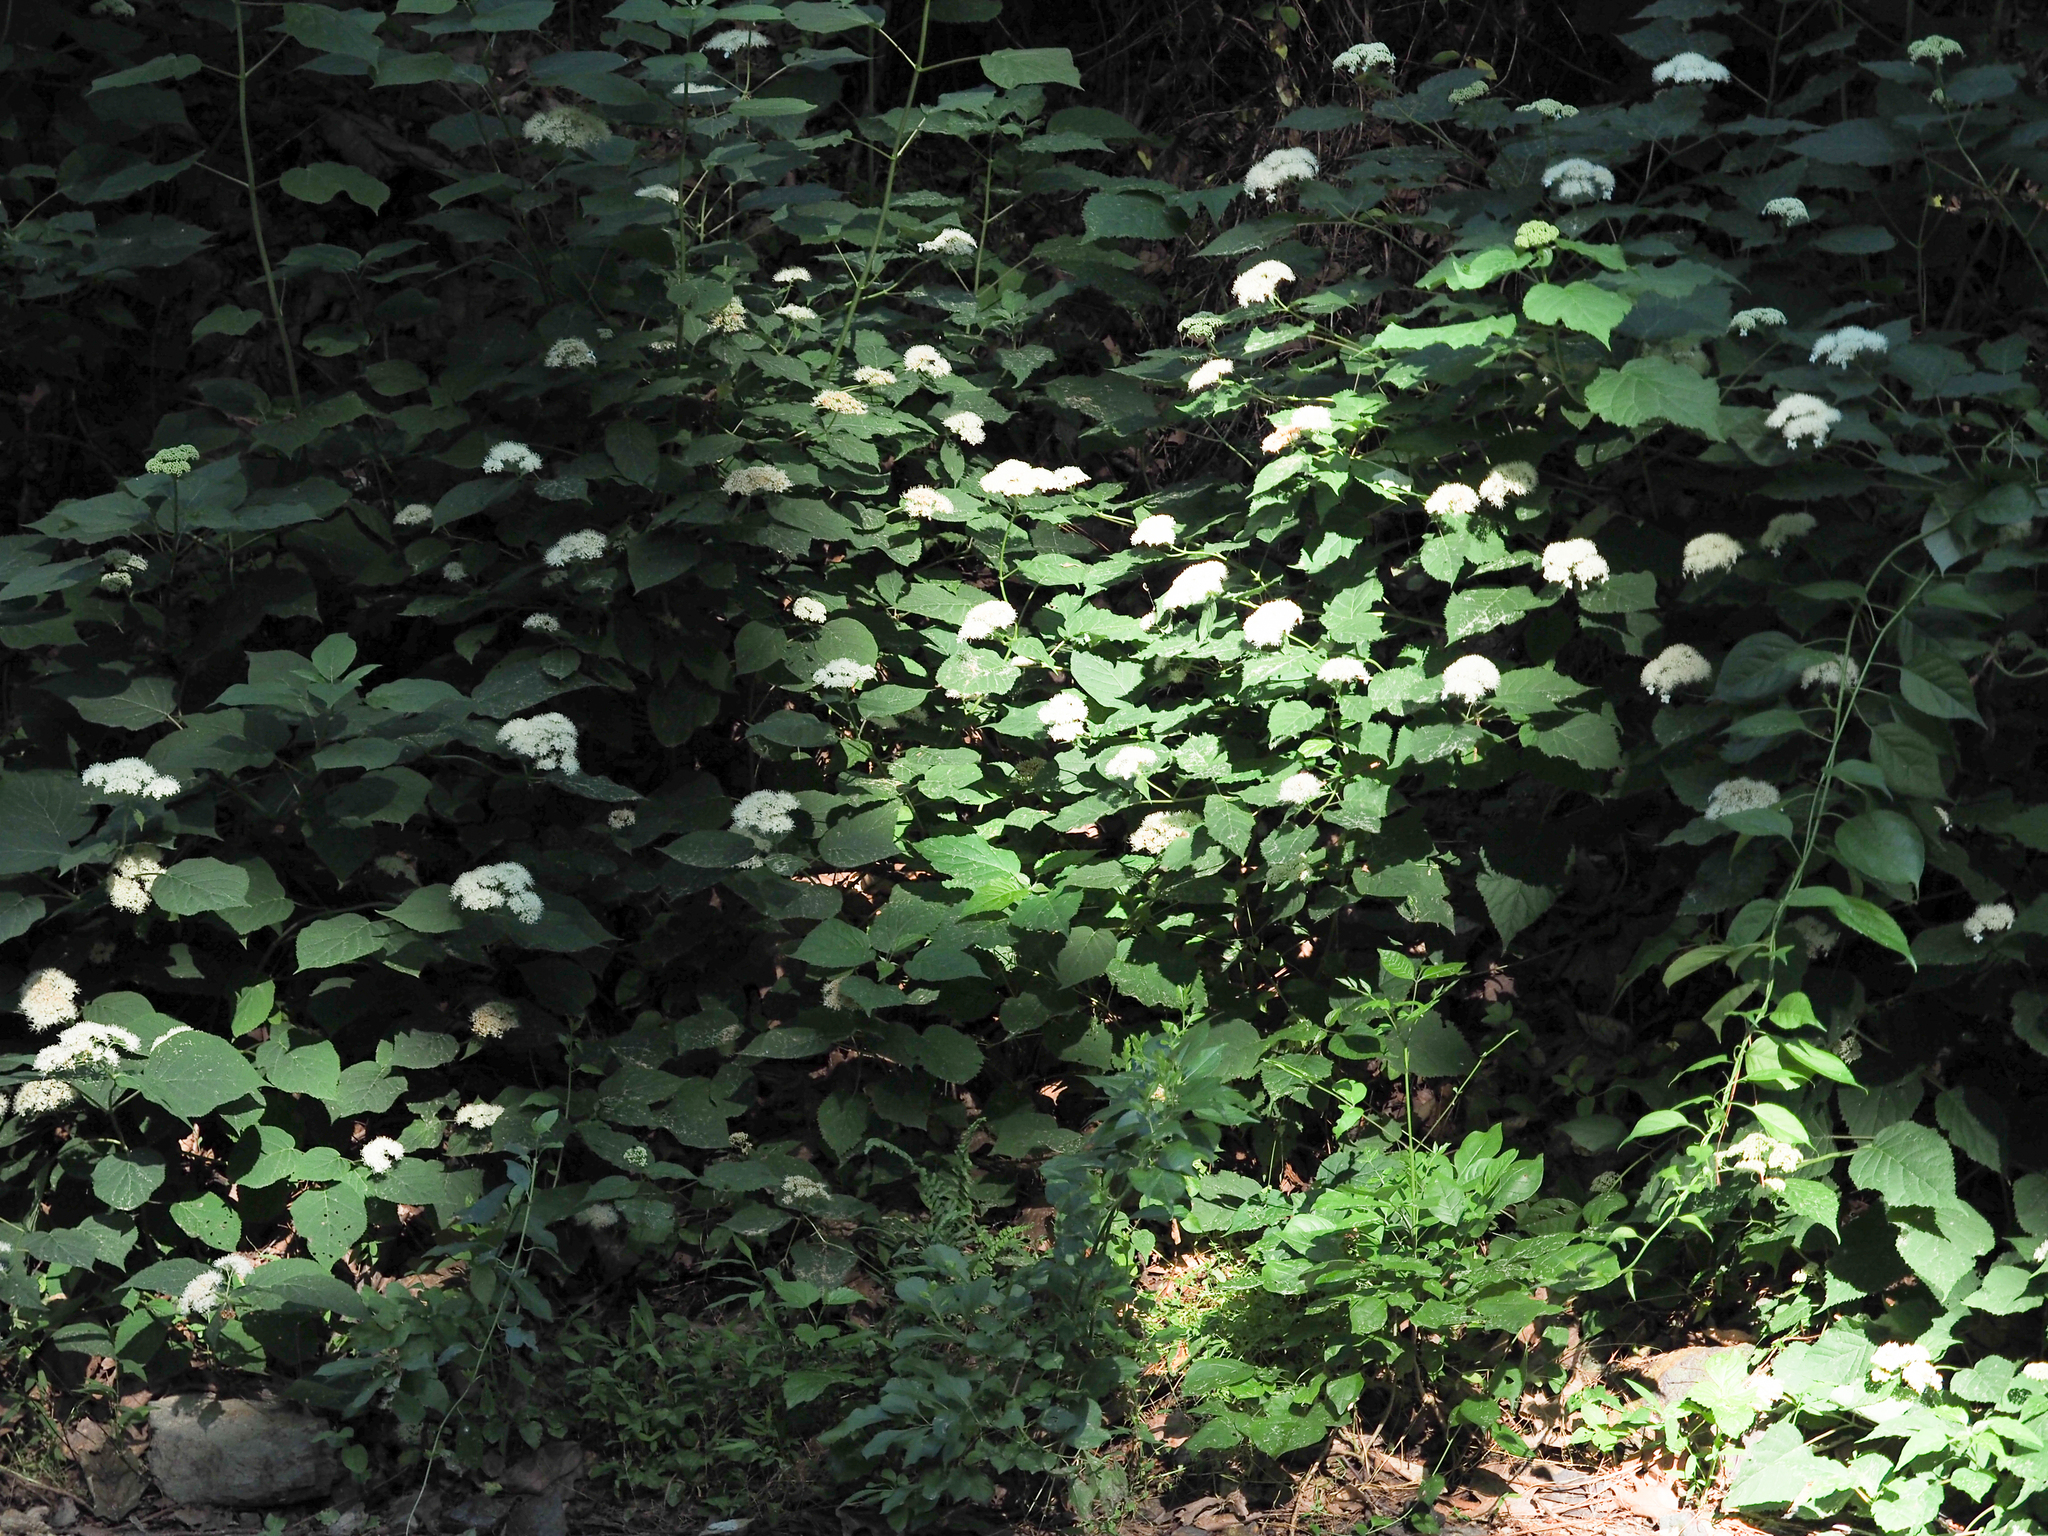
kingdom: Plantae
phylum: Tracheophyta
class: Magnoliopsida
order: Cornales
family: Hydrangeaceae
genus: Hydrangea
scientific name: Hydrangea arborescens
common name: Sevenbark
